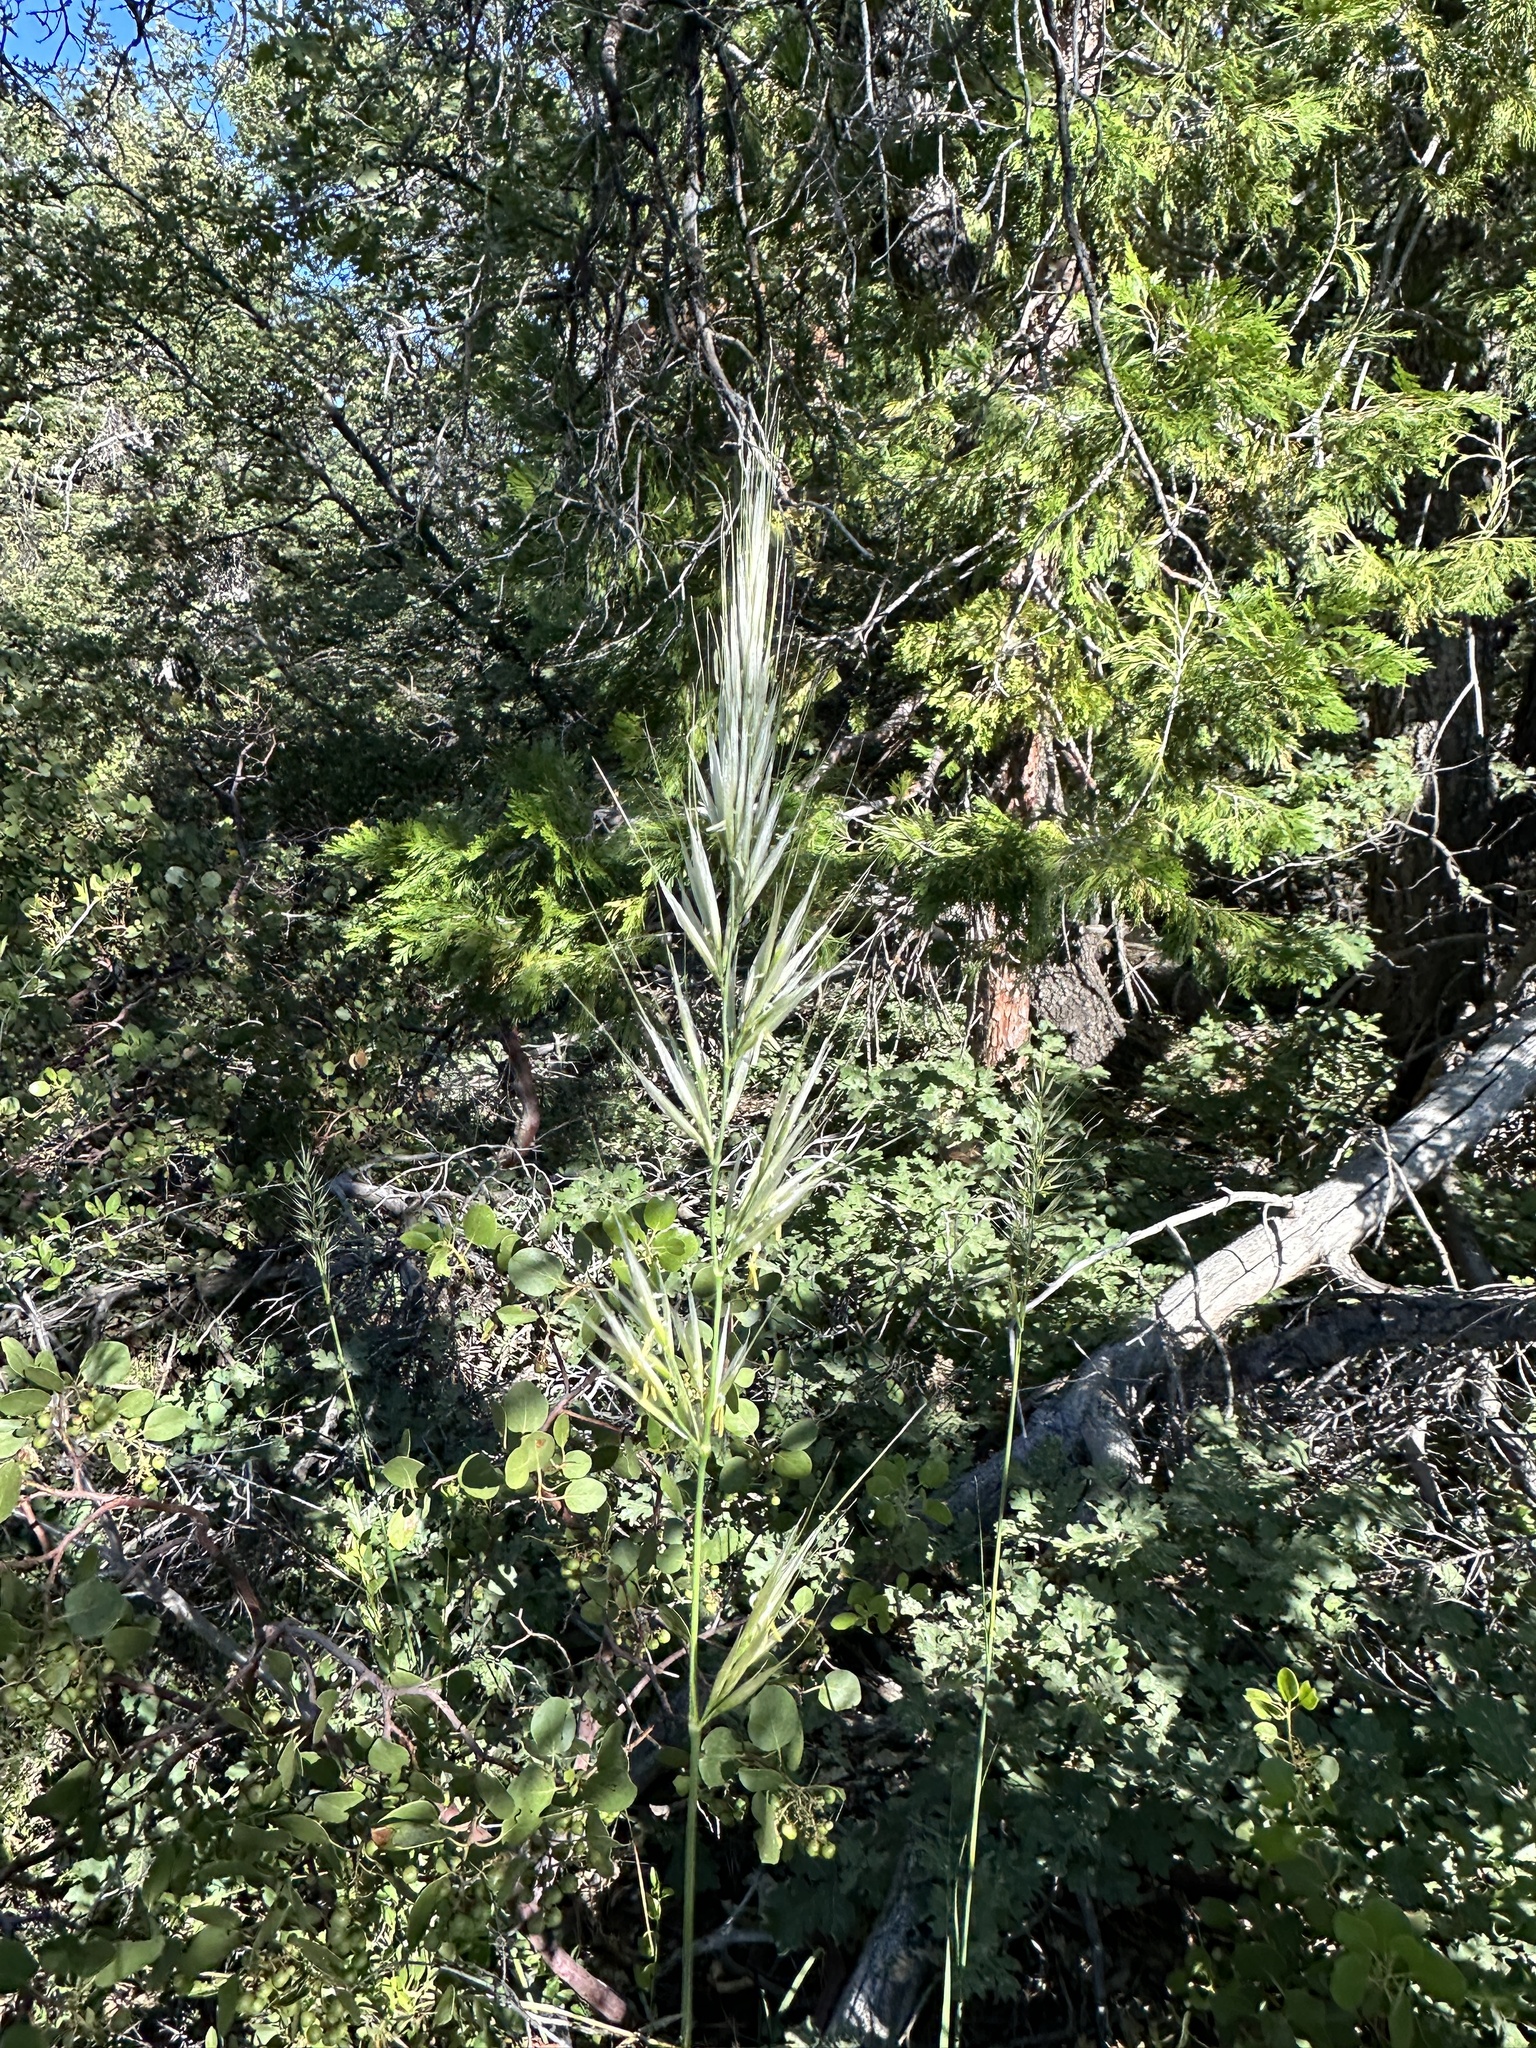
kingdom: Plantae
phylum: Tracheophyta
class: Liliopsida
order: Poales
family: Poaceae
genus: Barkworthia
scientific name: Barkworthia stillmanii
